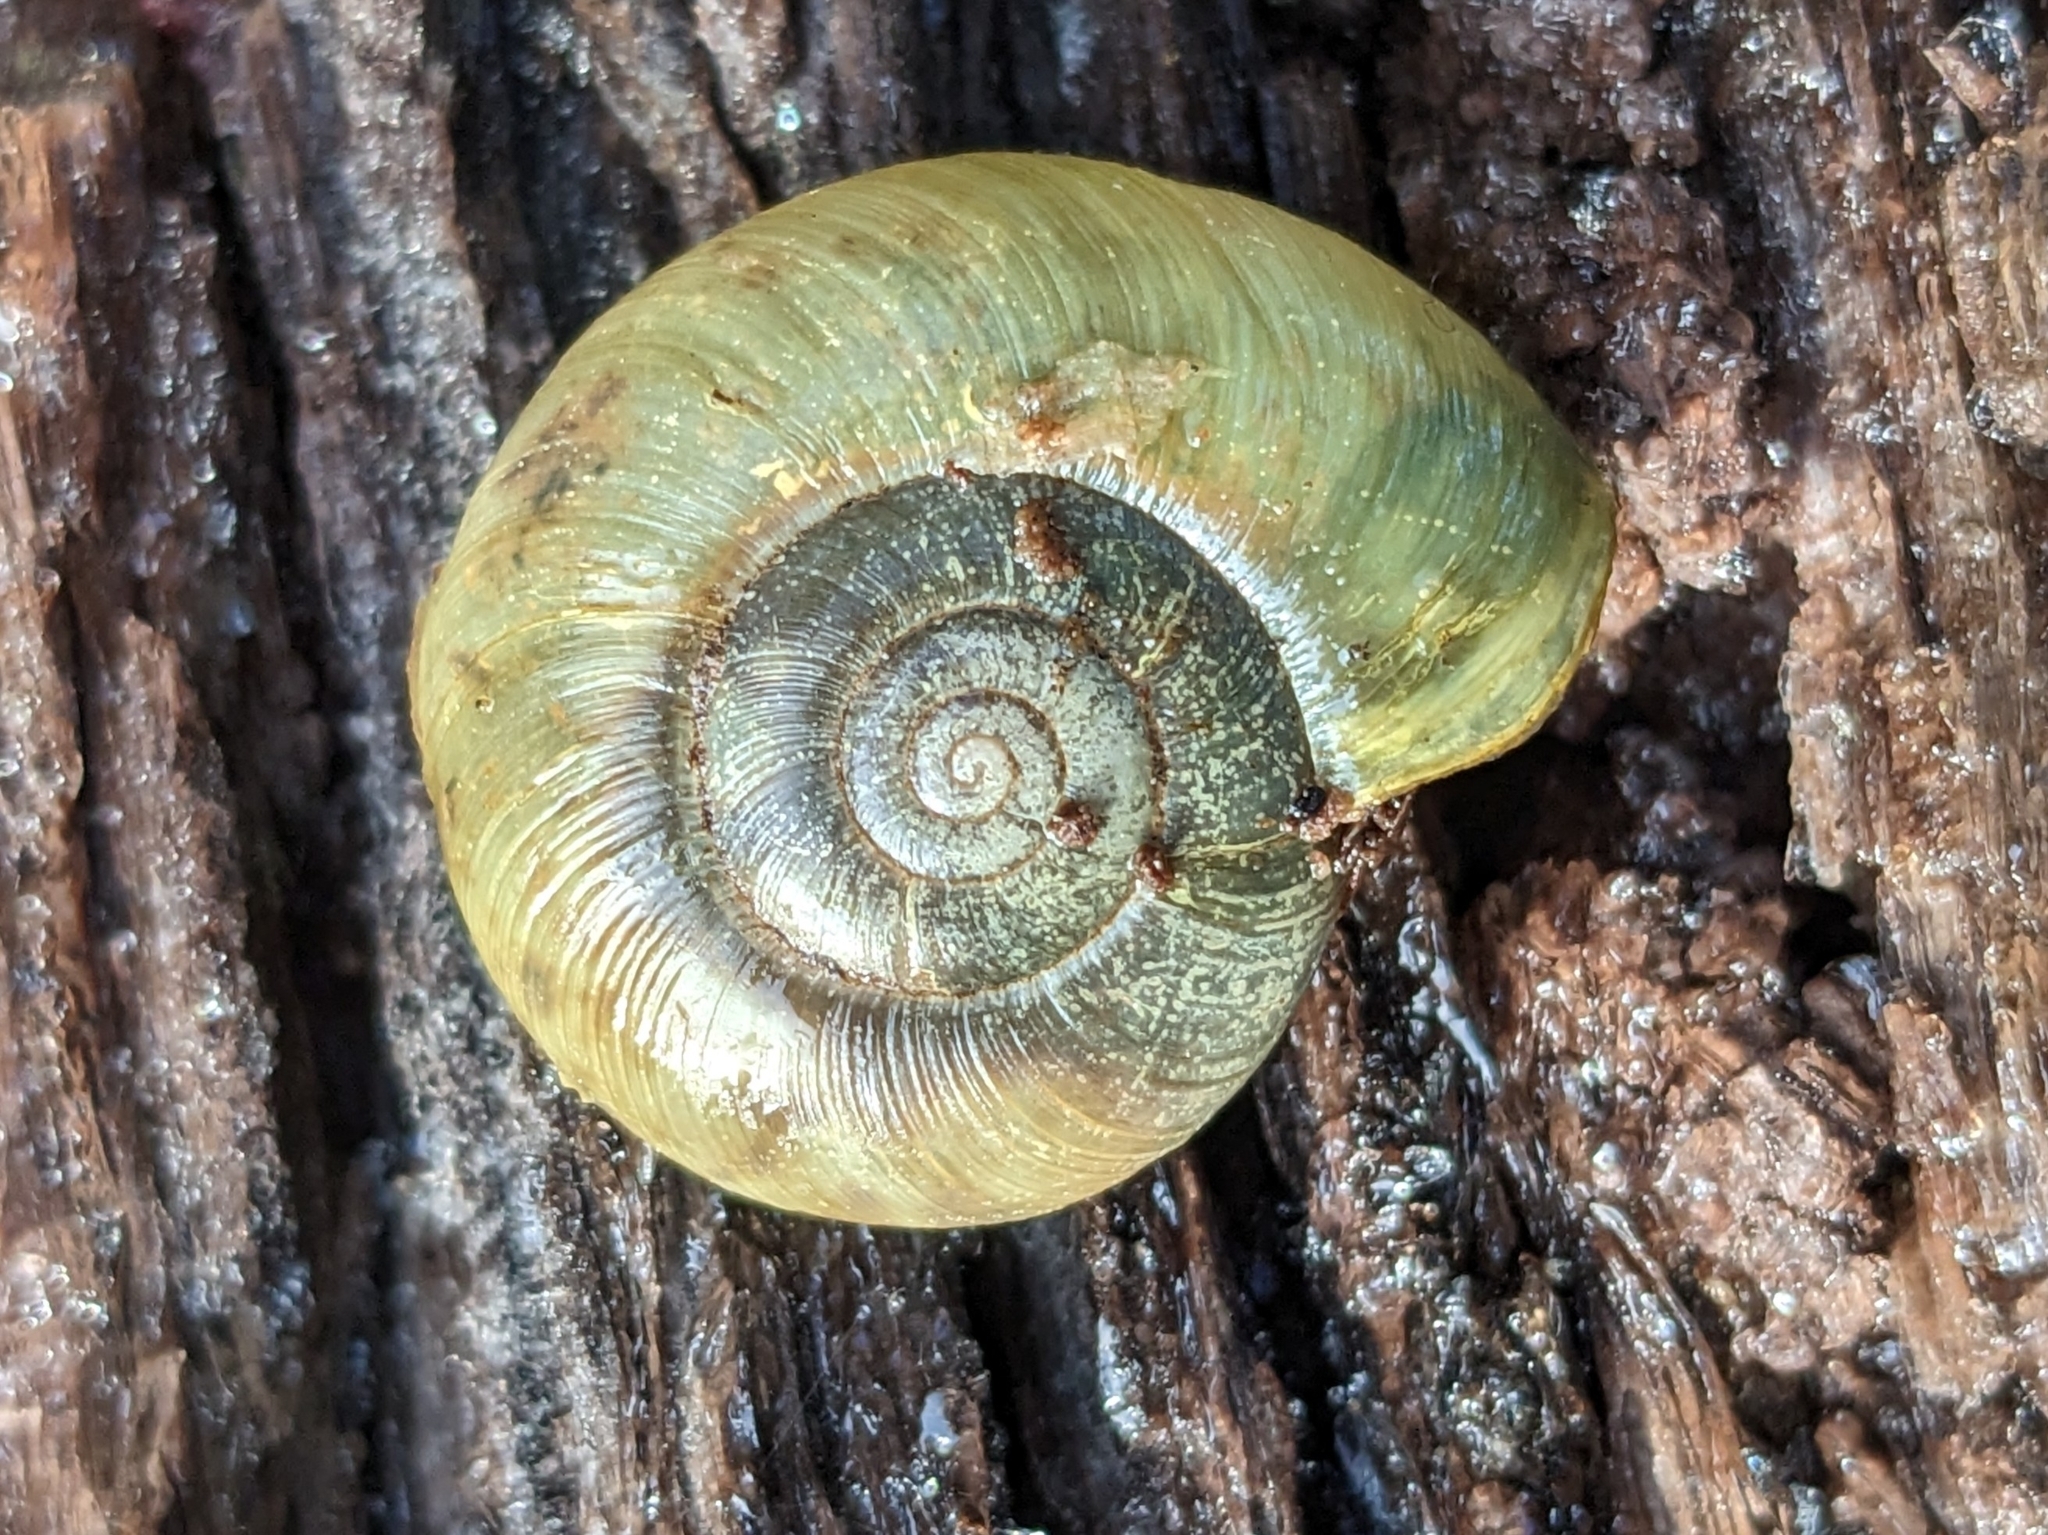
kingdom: Animalia
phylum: Mollusca
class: Gastropoda
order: Stylommatophora
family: Haplotrematidae
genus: Haplotrema
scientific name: Haplotrema minimum
